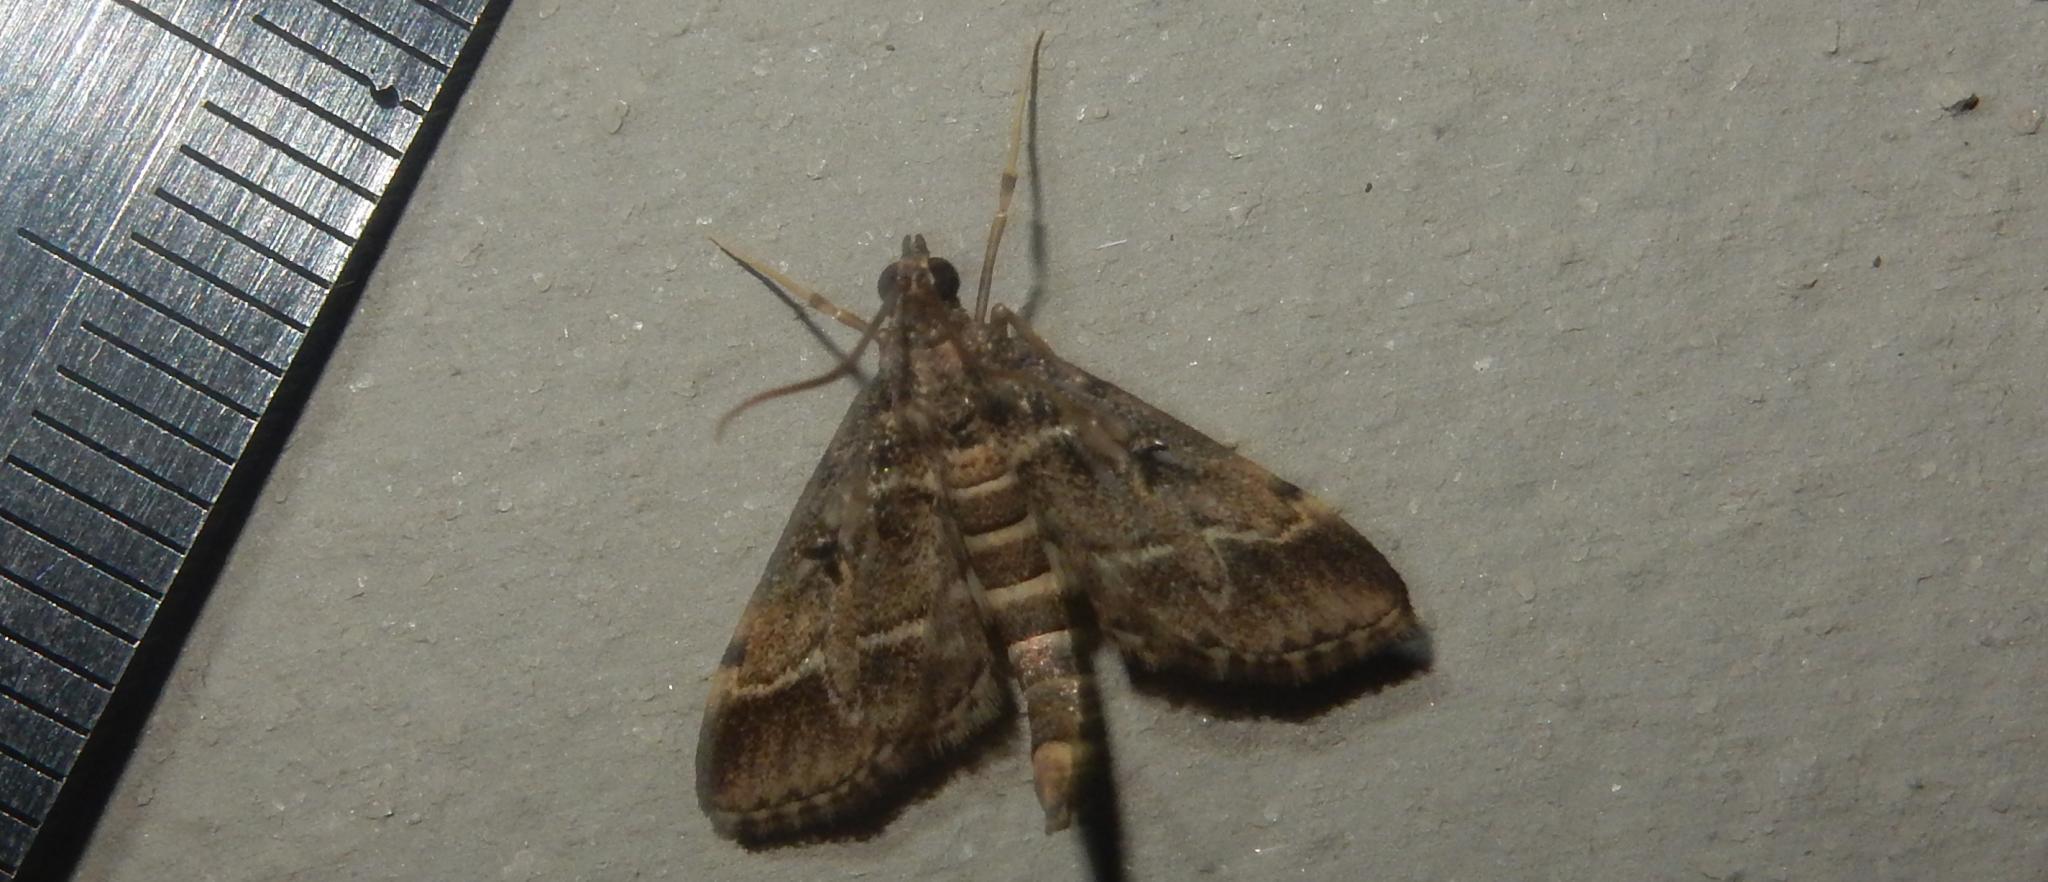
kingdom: Animalia
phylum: Arthropoda
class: Insecta
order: Lepidoptera
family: Crambidae
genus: Duponchelia
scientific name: Duponchelia fovealis
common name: Crambid moth
